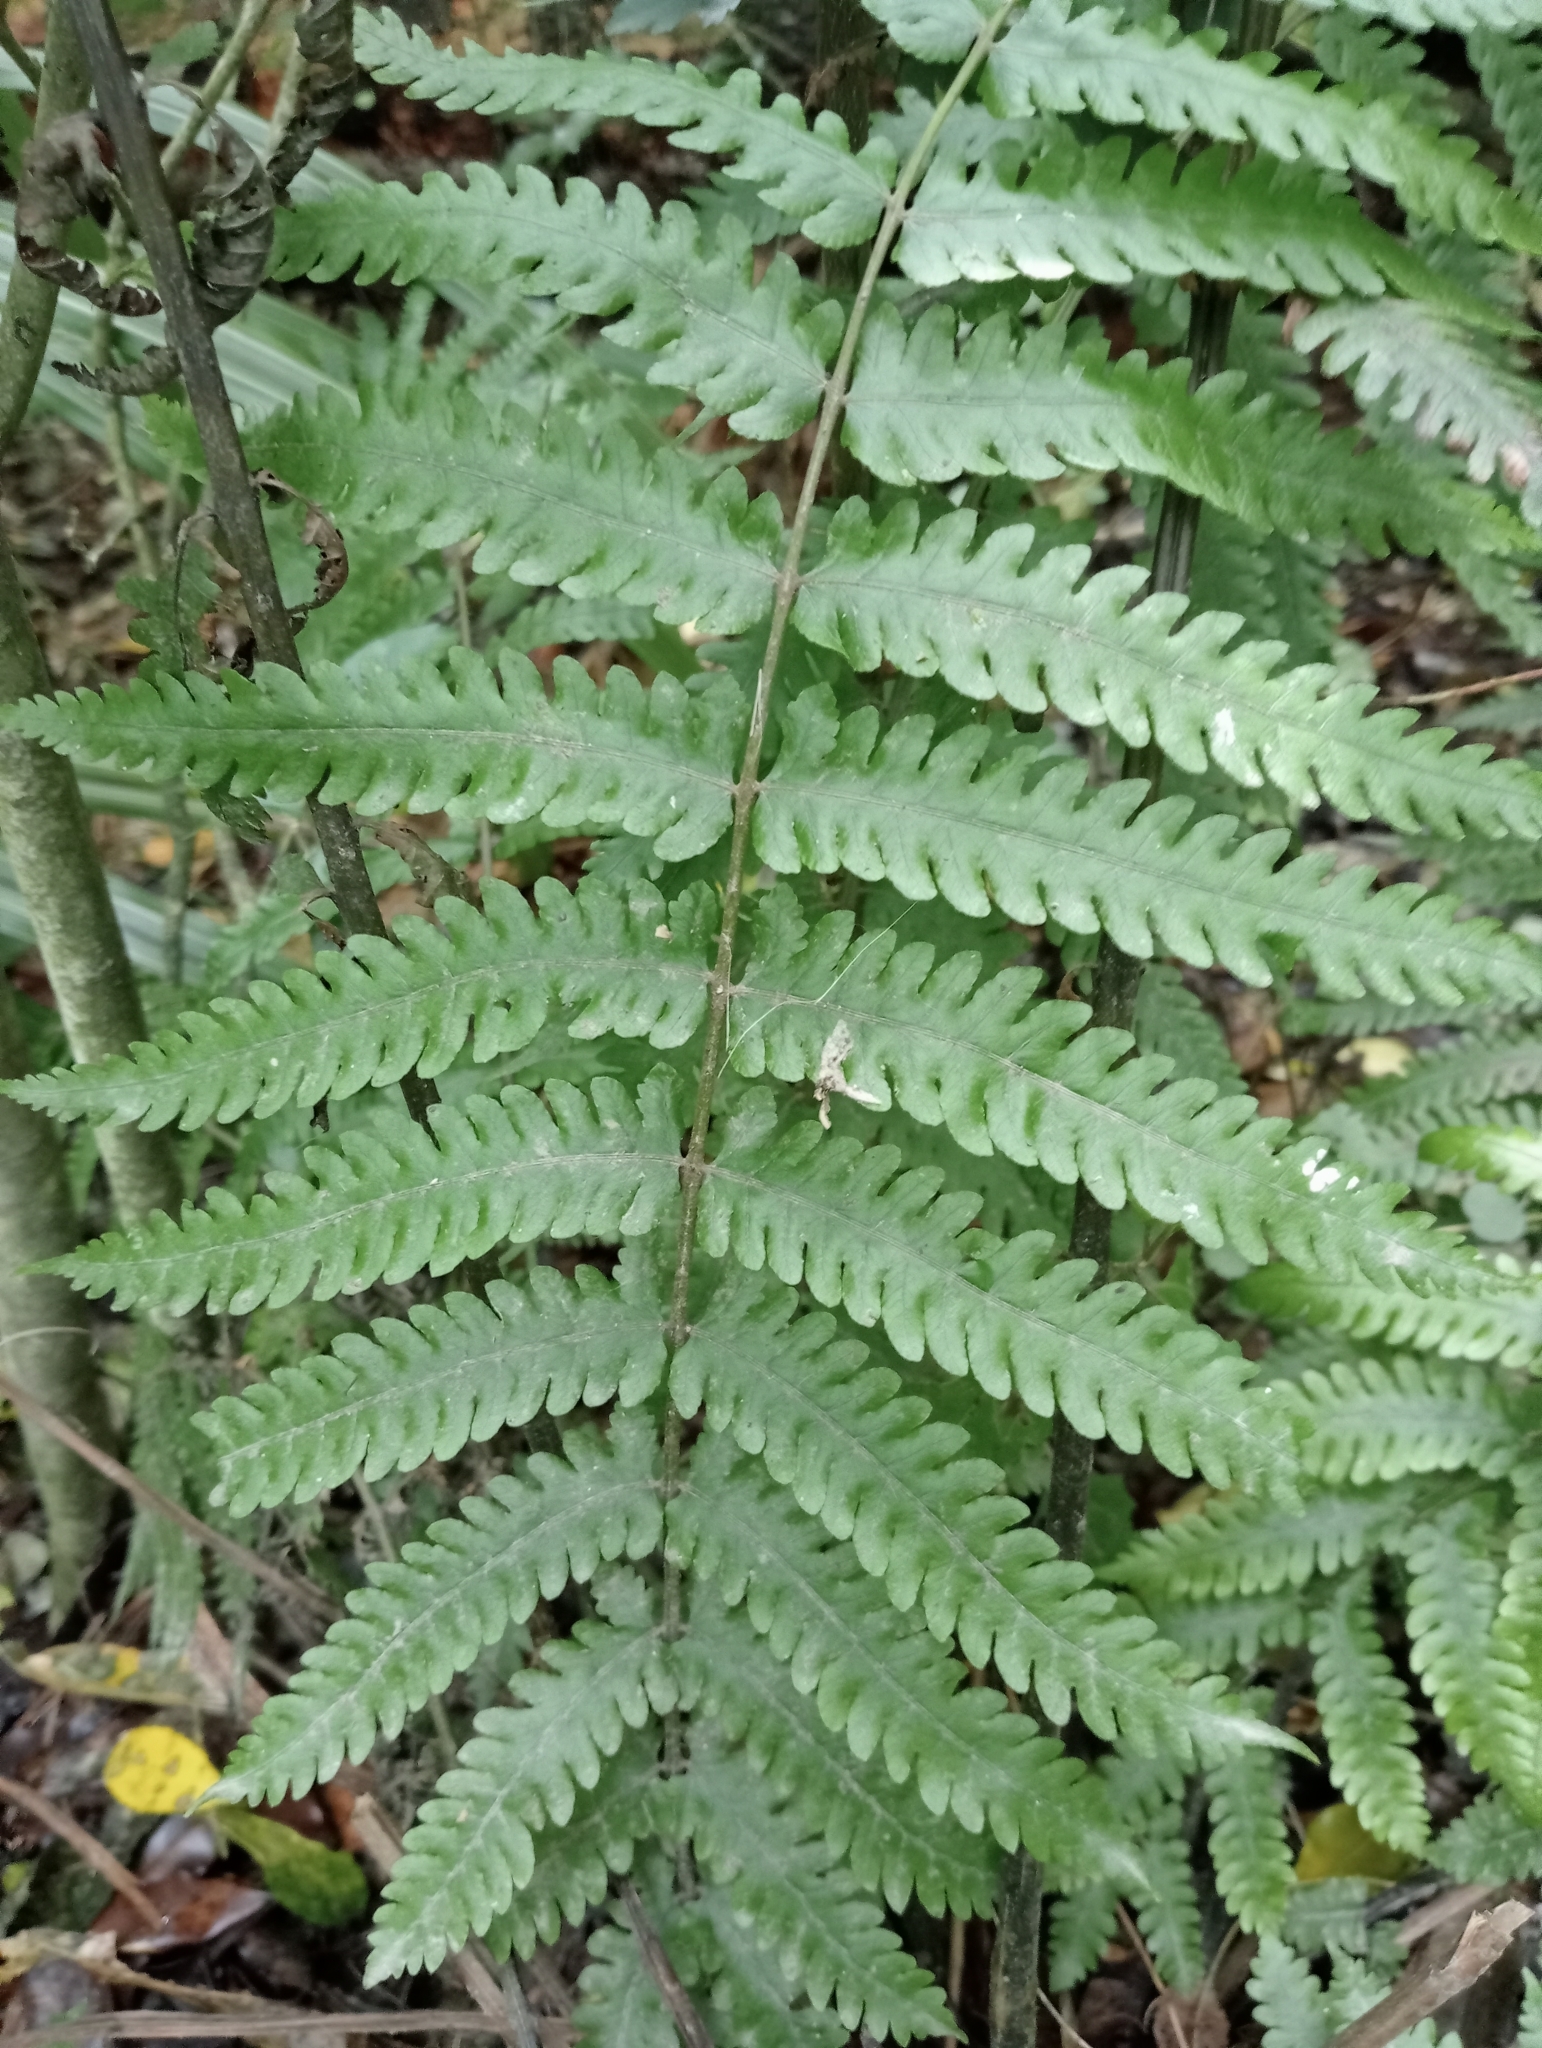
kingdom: Plantae
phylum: Tracheophyta
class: Polypodiopsida
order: Polypodiales
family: Thelypteridaceae
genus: Pakau
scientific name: Pakau pennigera
